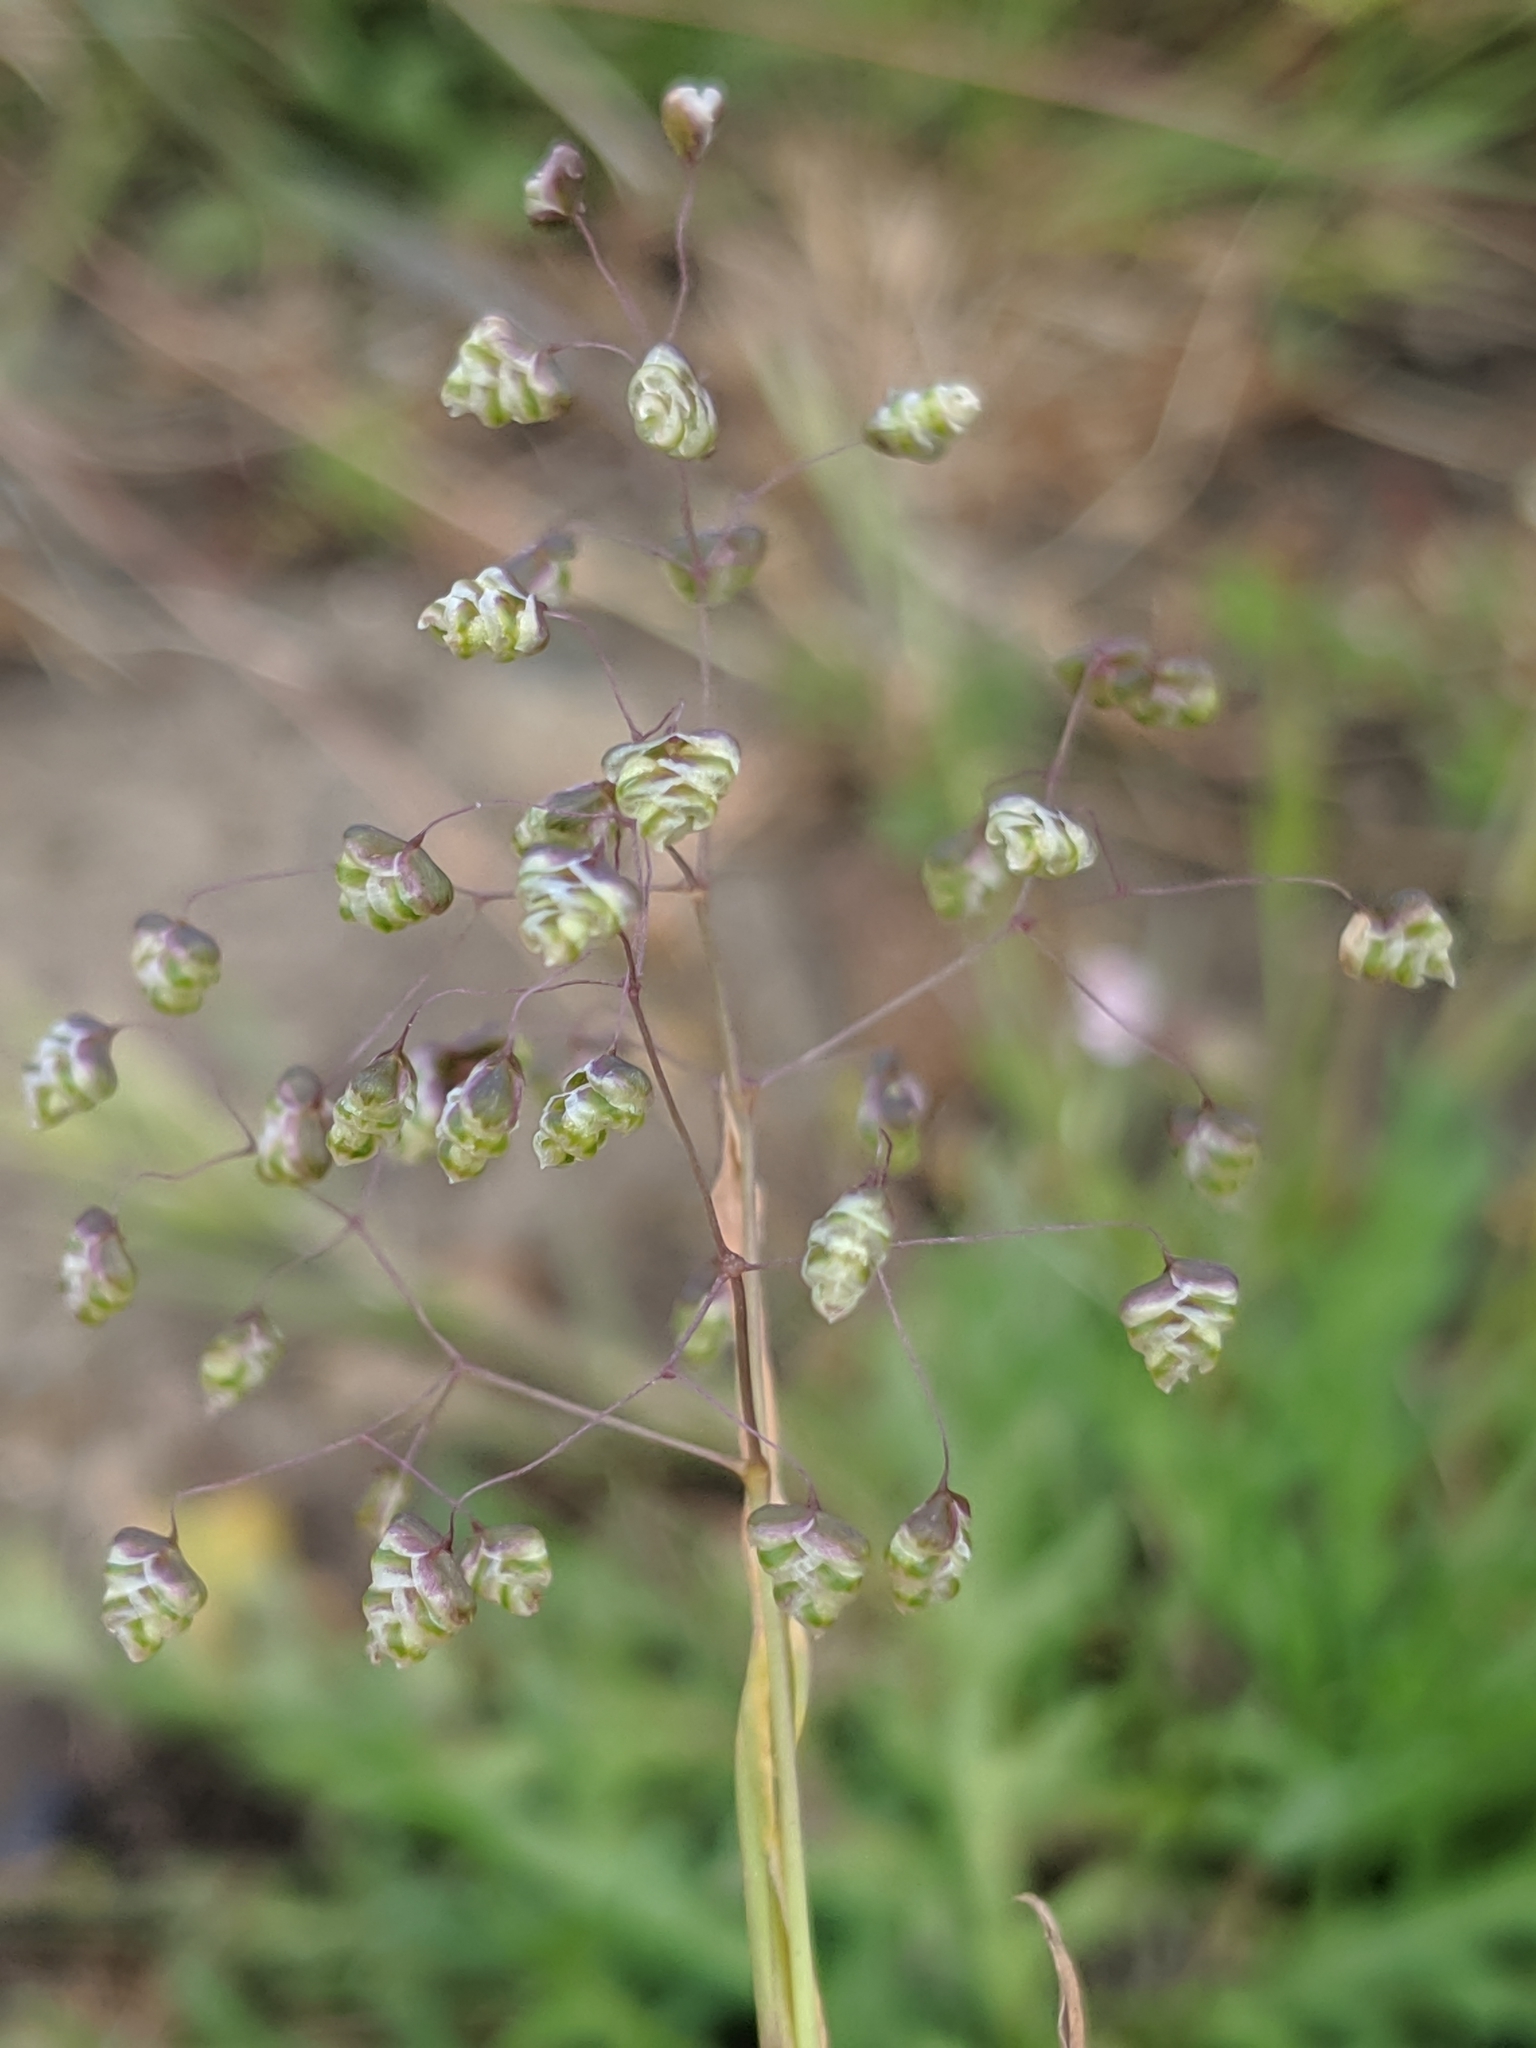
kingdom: Plantae
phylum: Tracheophyta
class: Liliopsida
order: Poales
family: Poaceae
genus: Briza
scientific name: Briza minor
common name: Lesser quaking-grass
